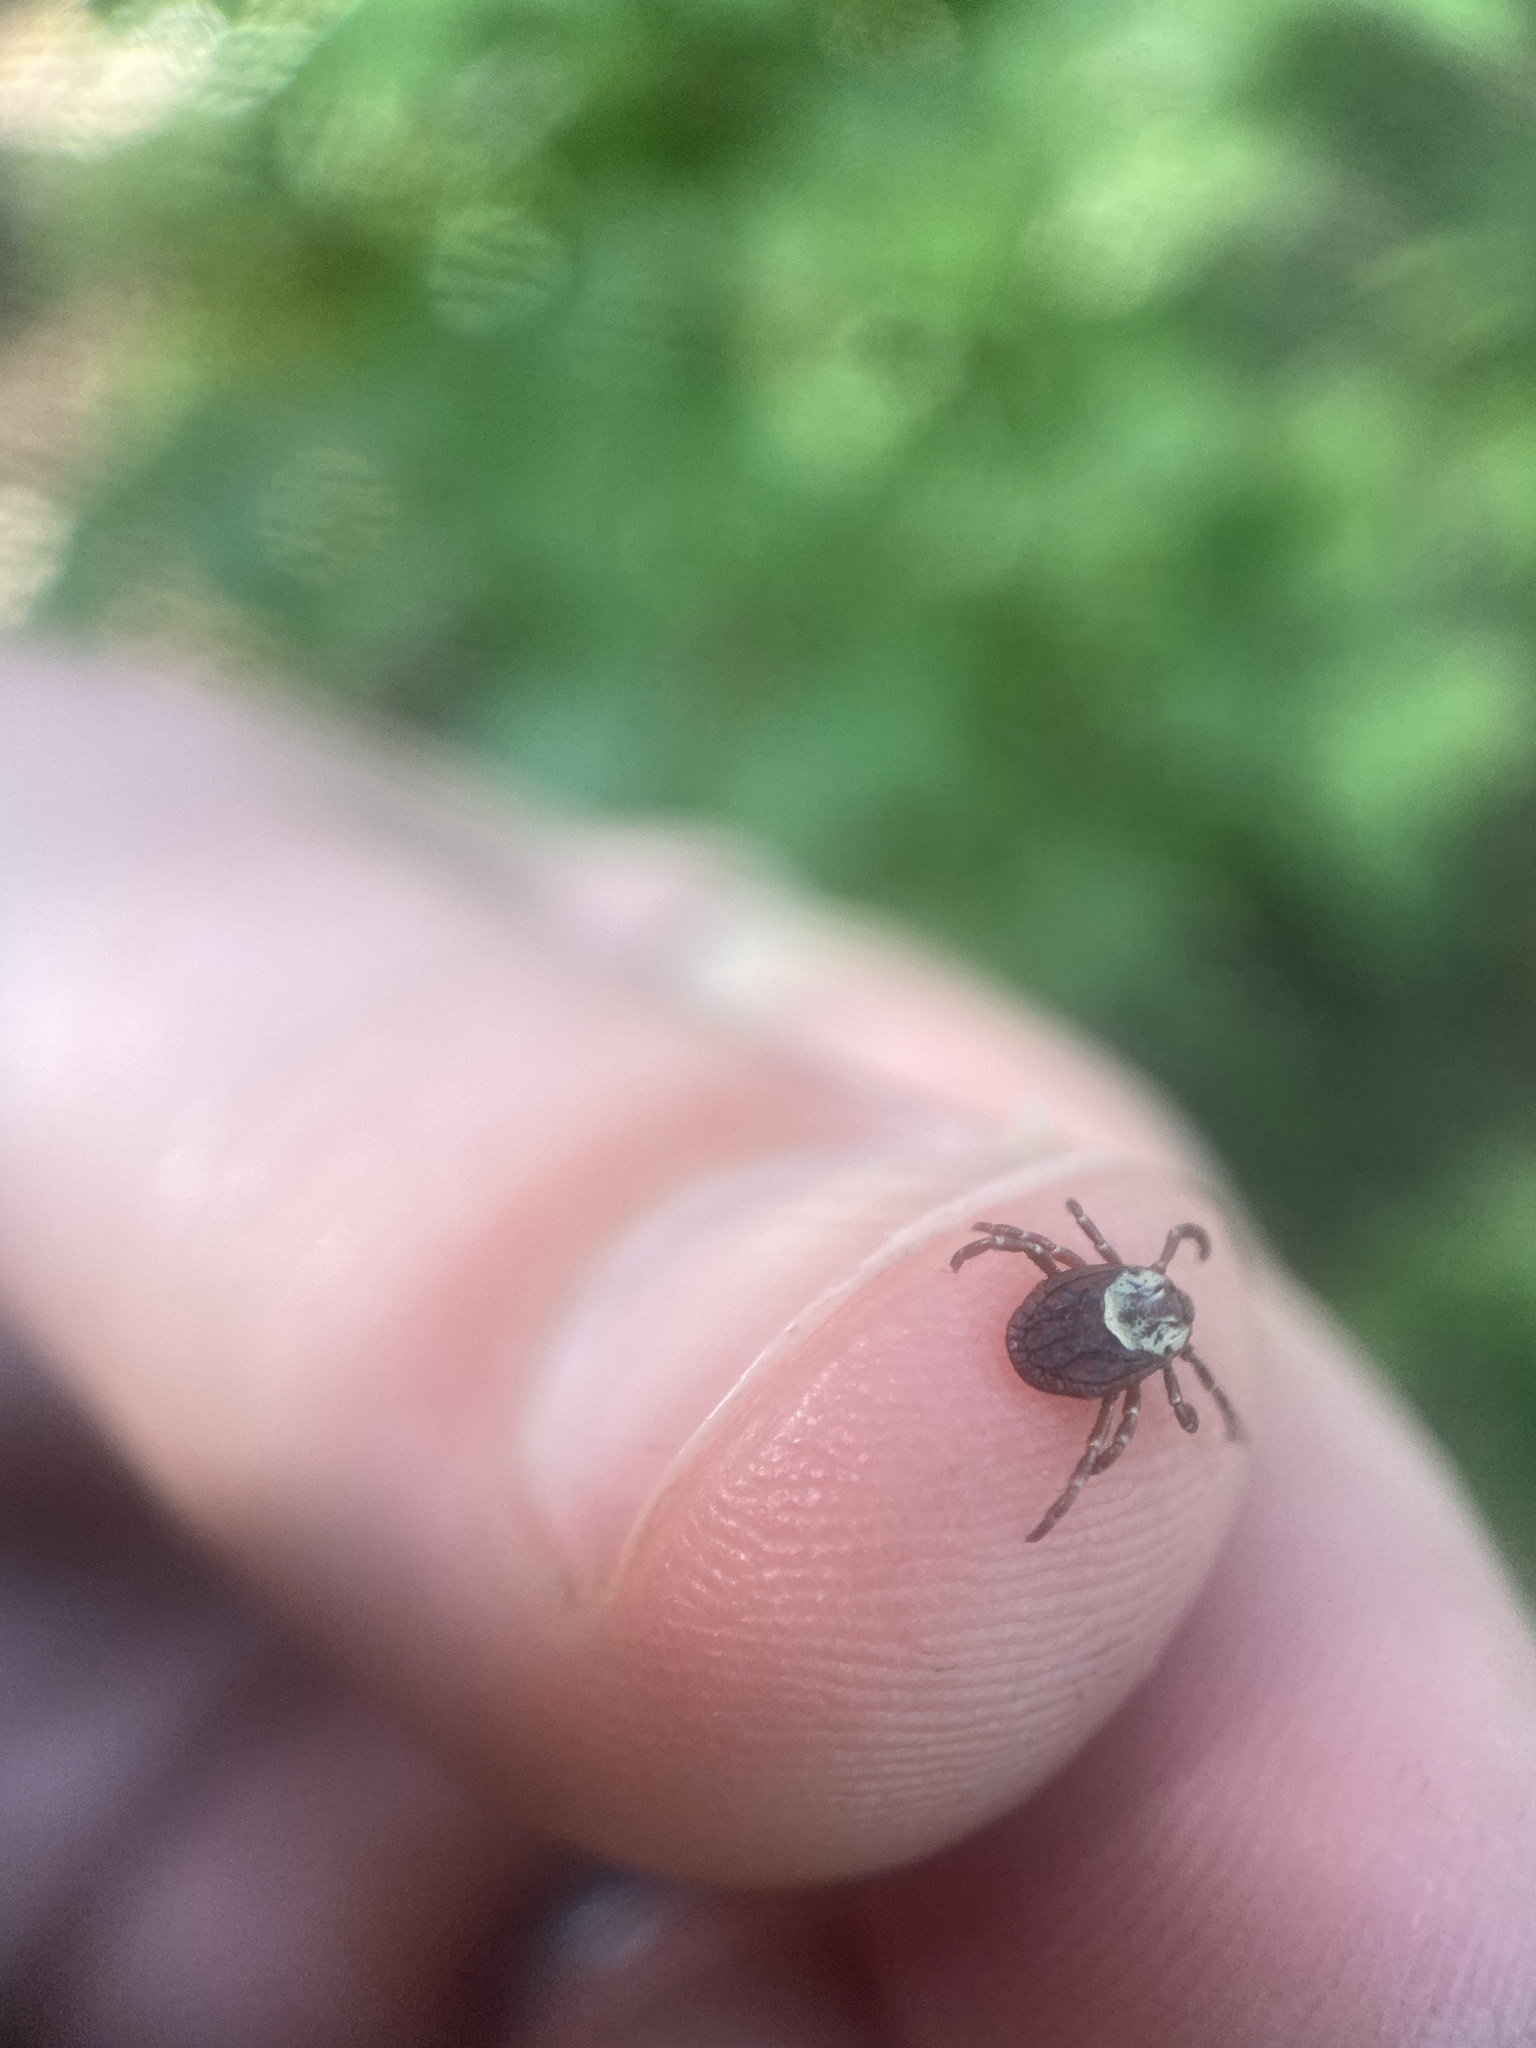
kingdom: Animalia
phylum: Arthropoda
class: Arachnida
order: Ixodida
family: Ixodidae
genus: Dermacentor
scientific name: Dermacentor variabilis
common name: American dog tick
